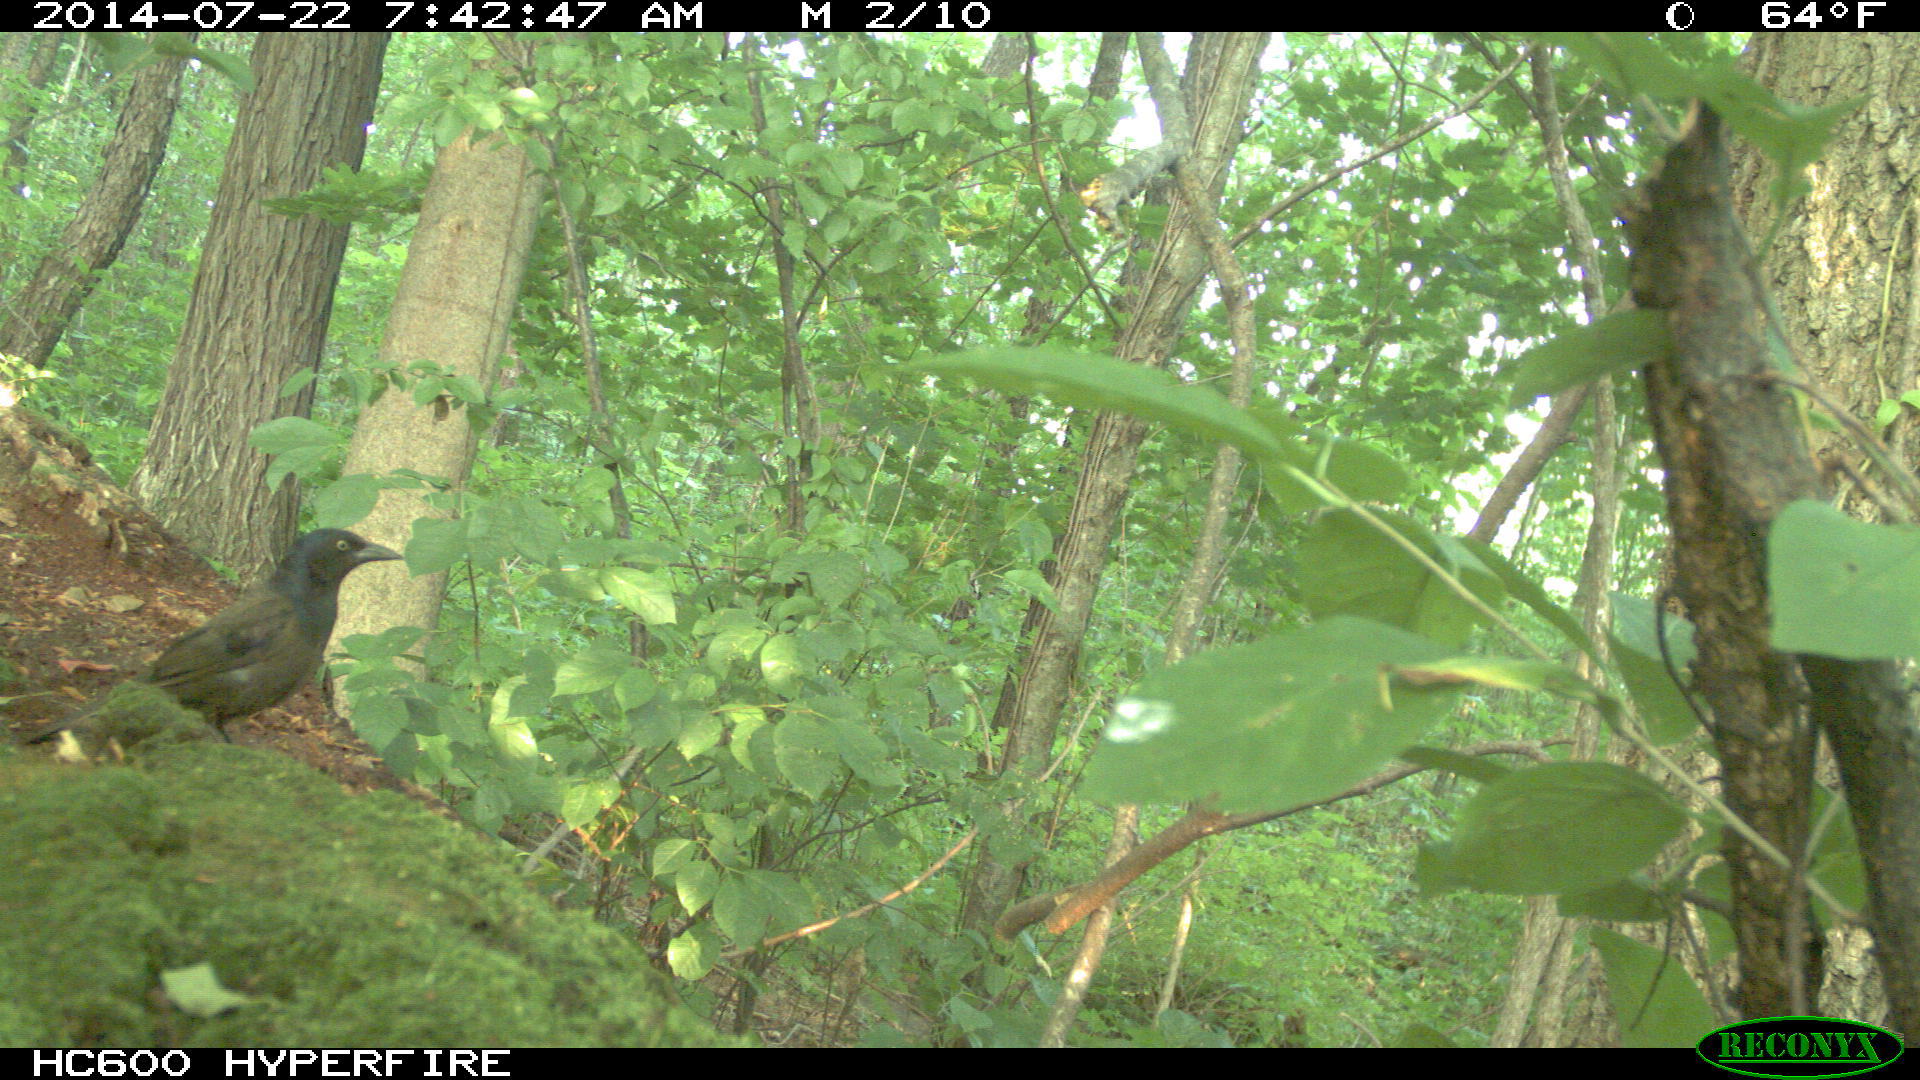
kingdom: Animalia
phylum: Chordata
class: Aves
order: Passeriformes
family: Icteridae
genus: Quiscalus
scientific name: Quiscalus quiscula
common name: Common grackle
